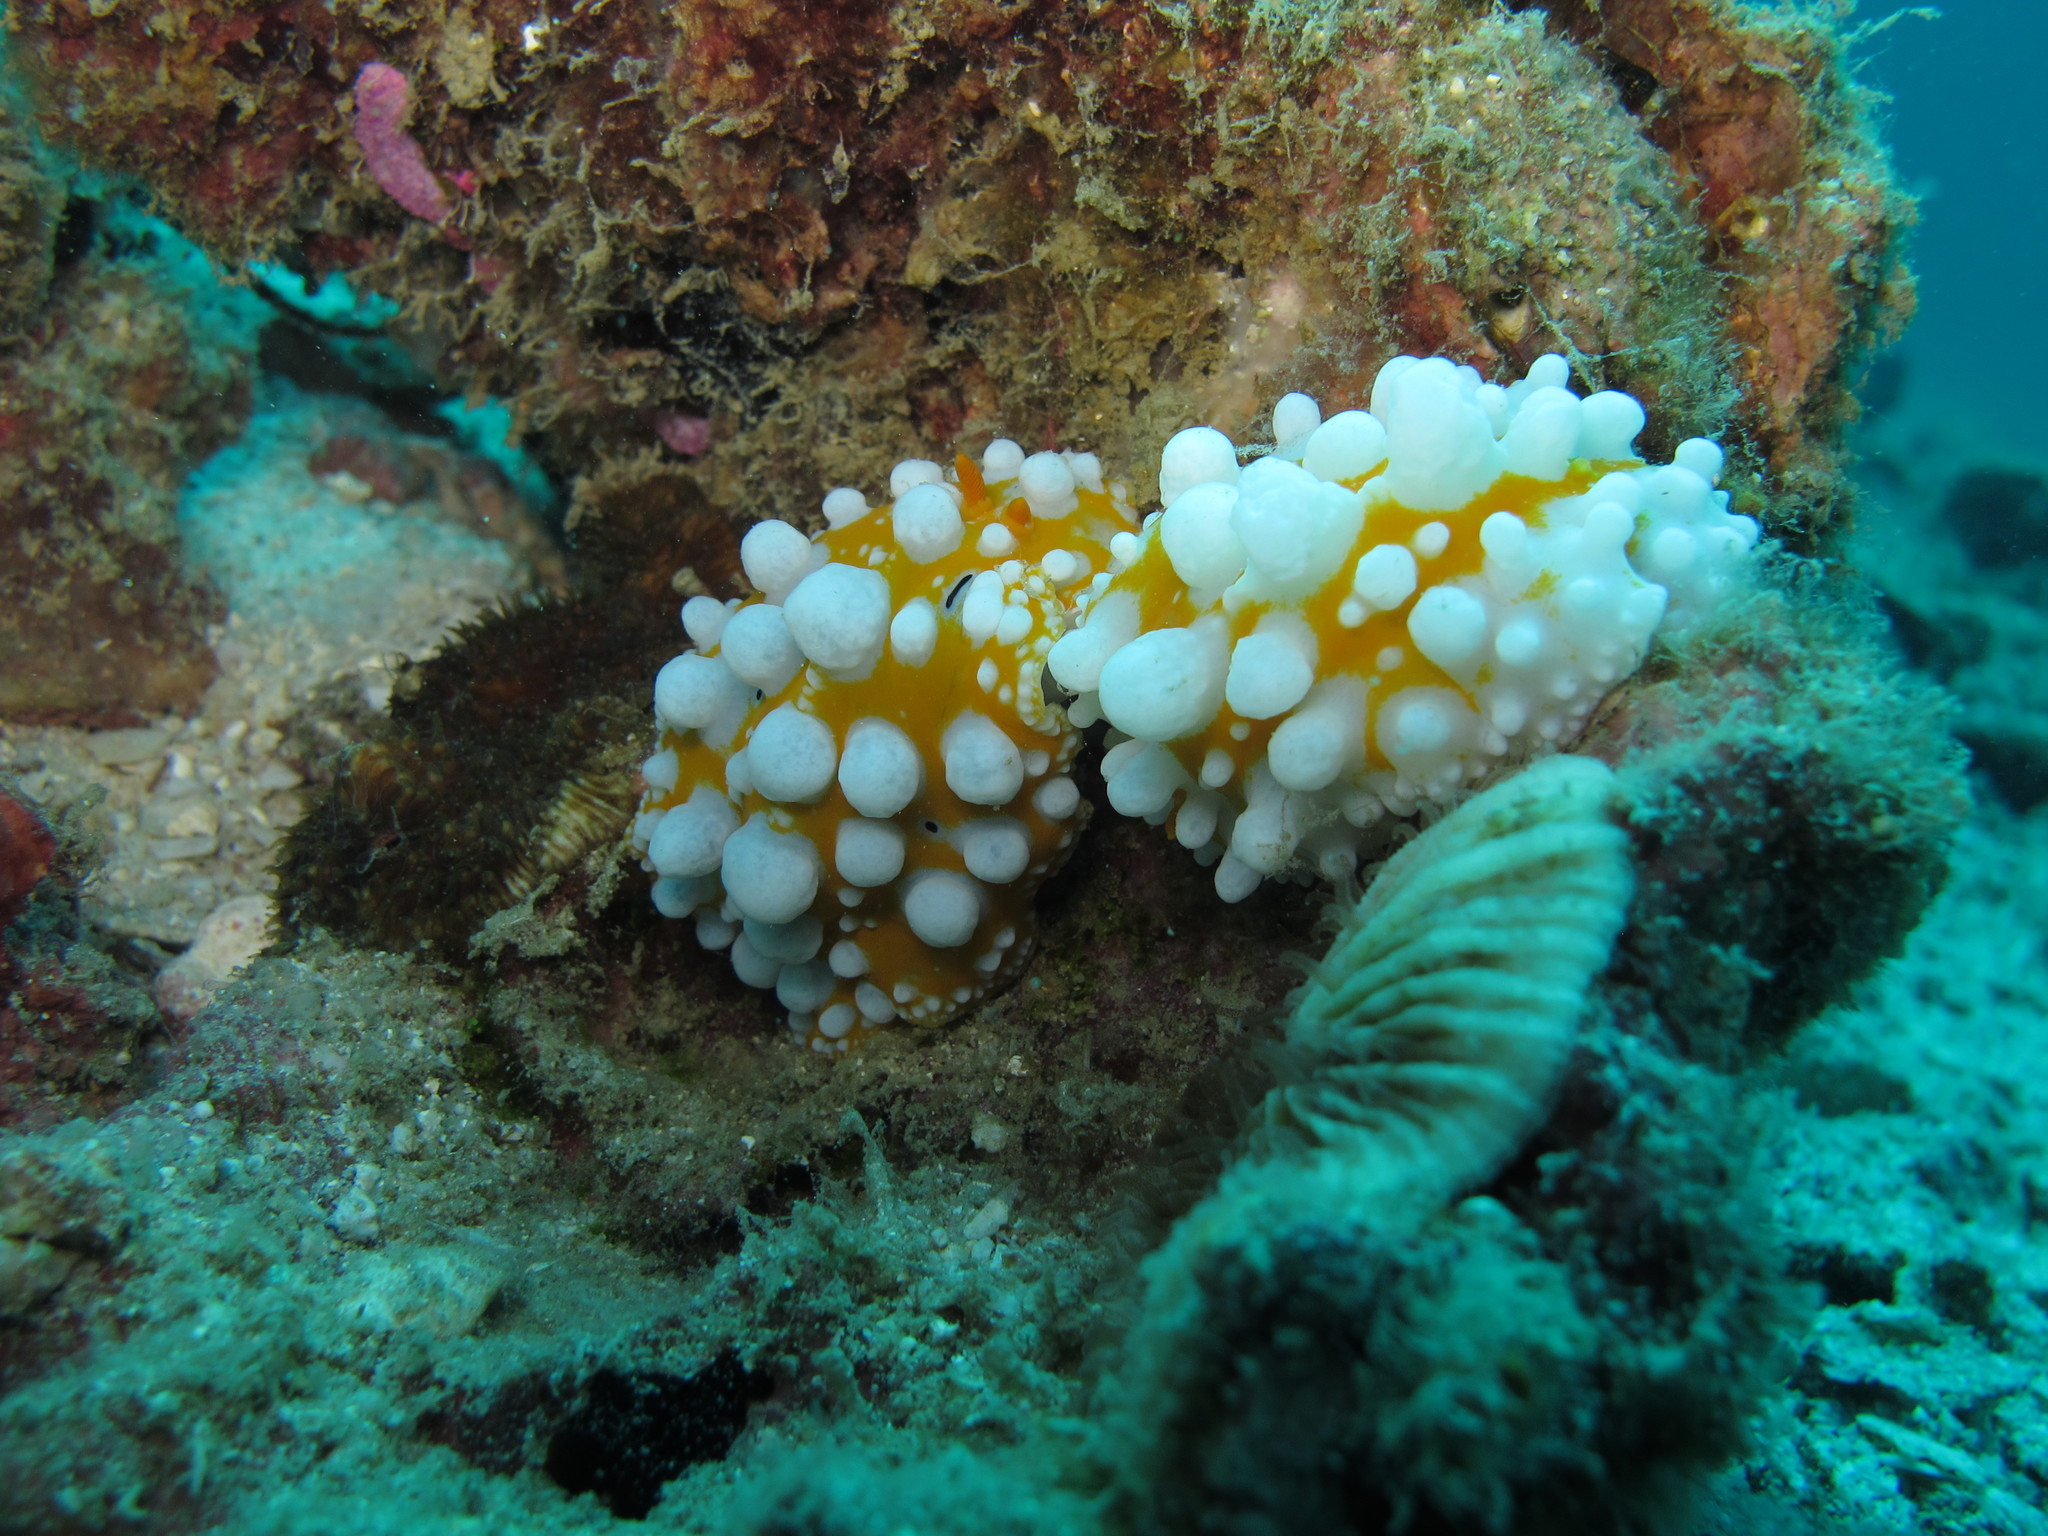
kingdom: Animalia
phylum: Mollusca
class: Gastropoda
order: Nudibranchia
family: Phyllidiidae
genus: Phyllidia
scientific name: Phyllidia ocellata
